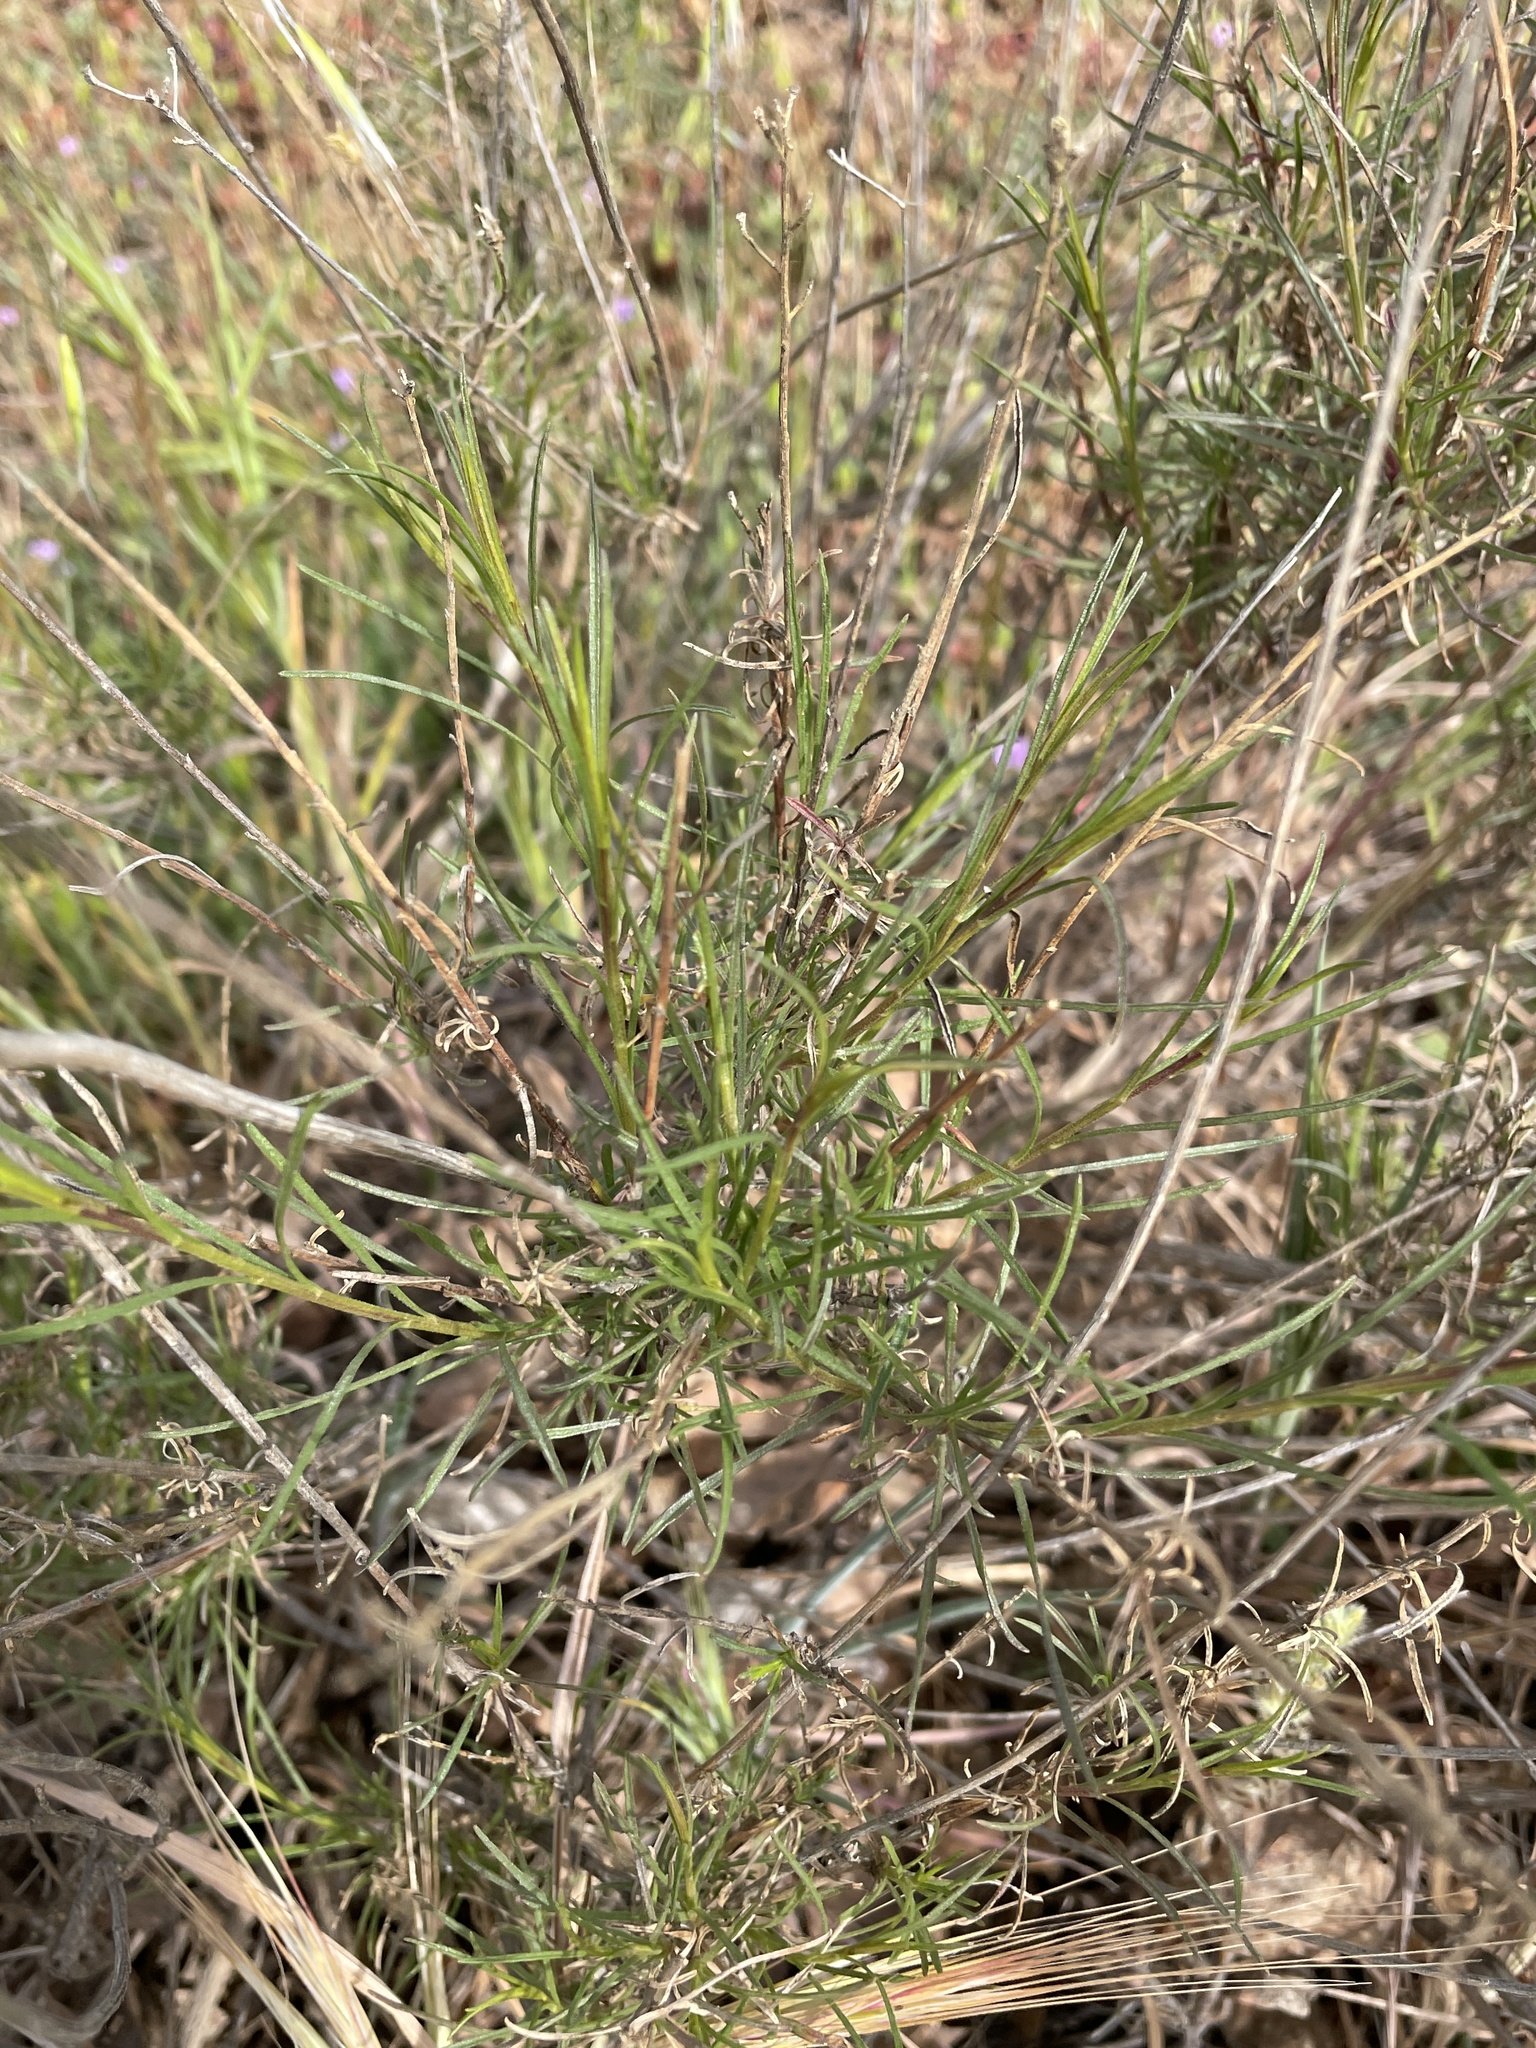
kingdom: Plantae
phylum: Tracheophyta
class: Magnoliopsida
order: Asterales
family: Asteraceae
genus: Gutierrezia
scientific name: Gutierrezia californica
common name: California matchweed
